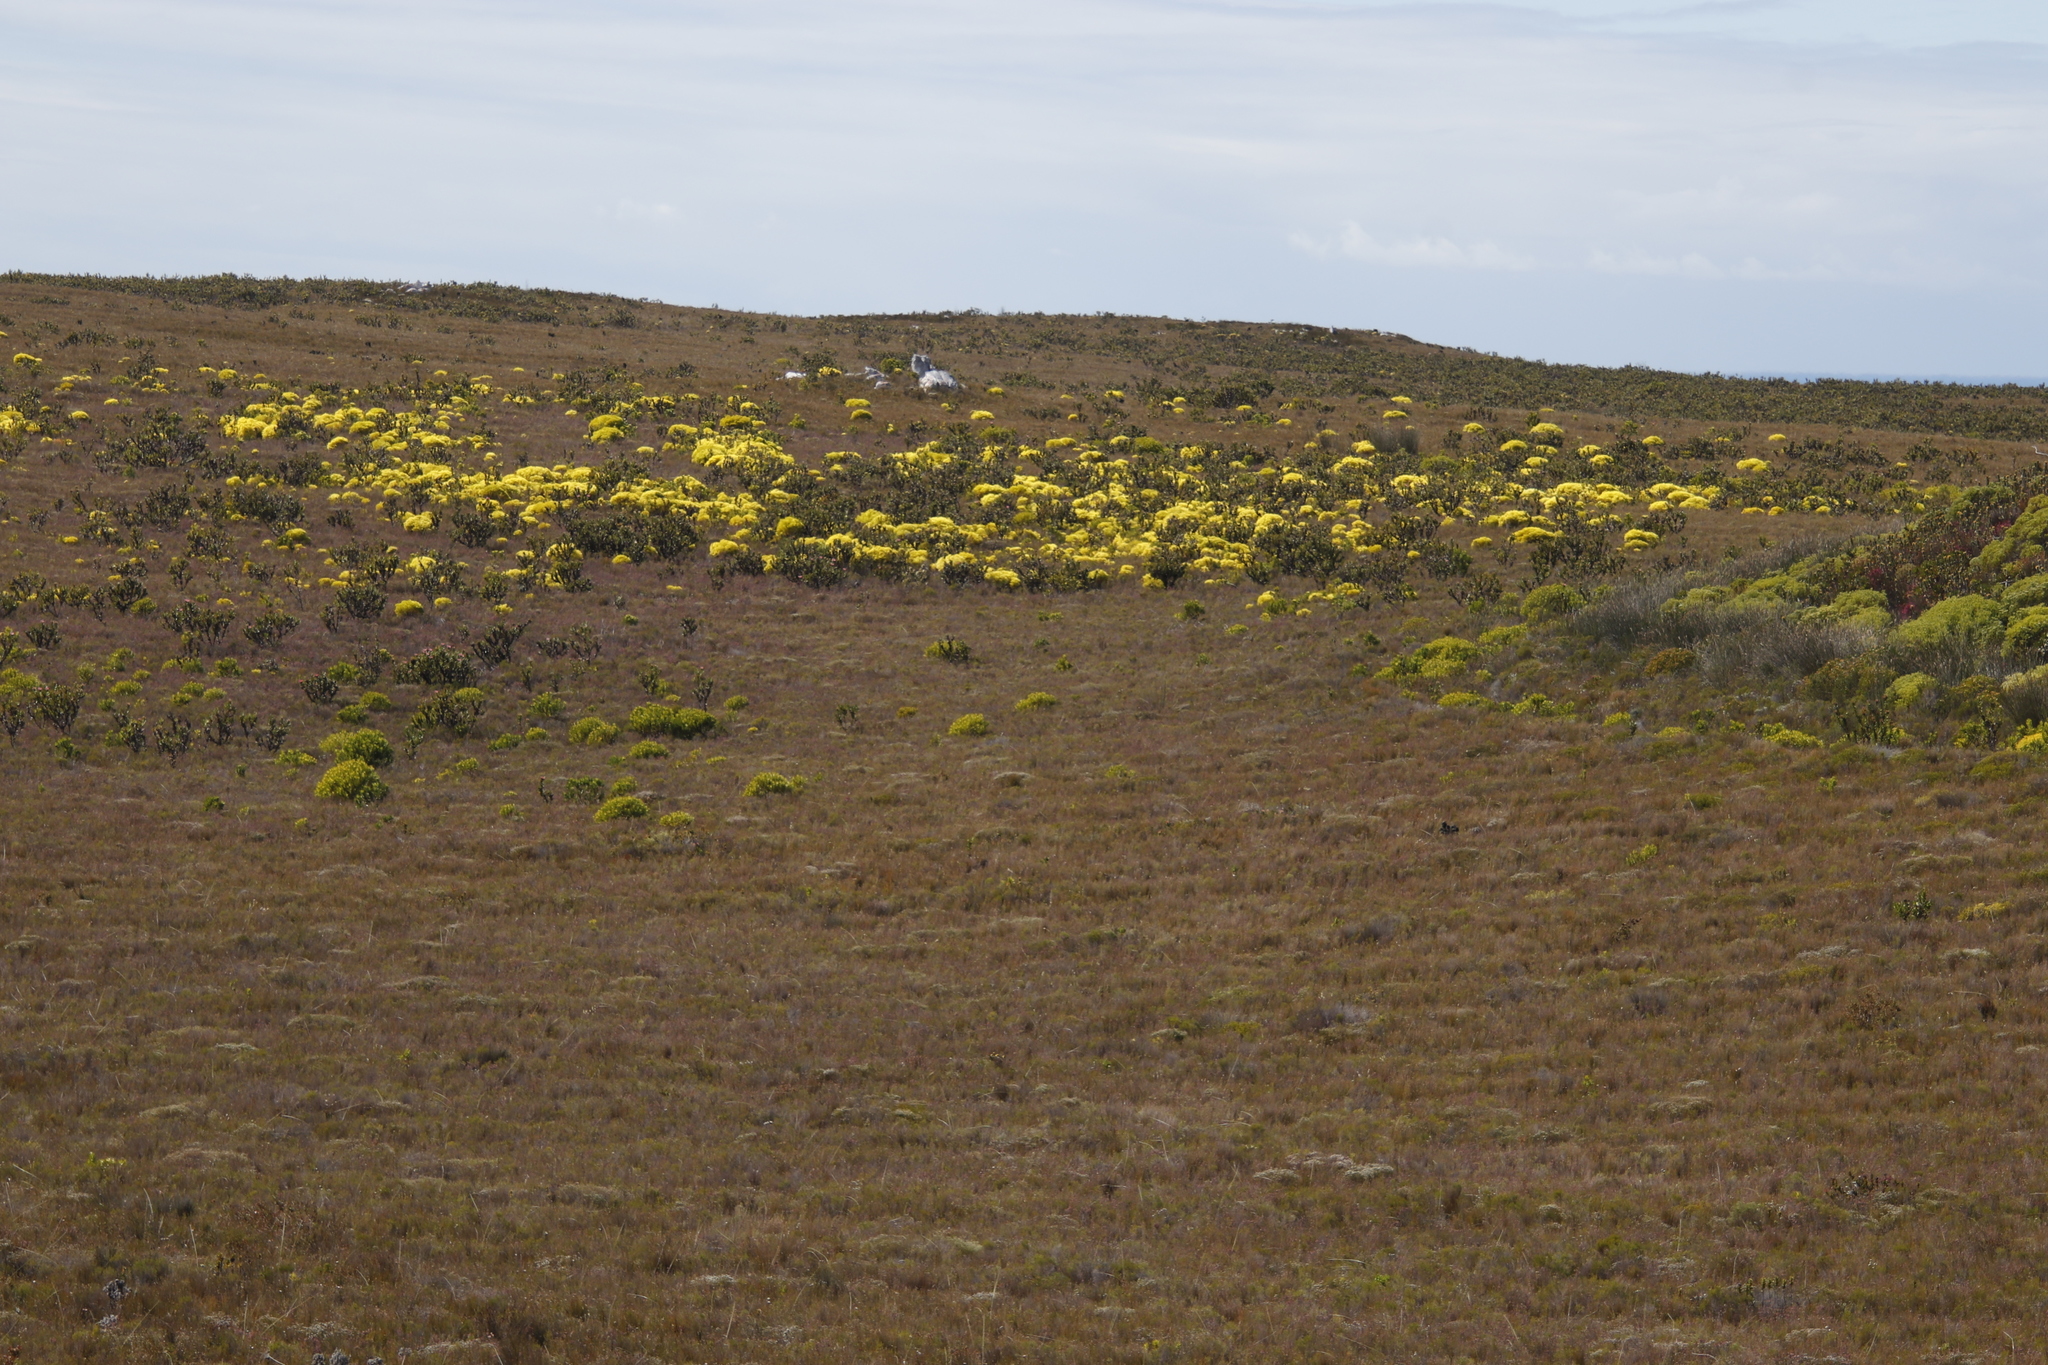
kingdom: Plantae
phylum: Tracheophyta
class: Magnoliopsida
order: Proteales
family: Proteaceae
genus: Leucadendron
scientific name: Leucadendron platyspermum
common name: Plate-seed conebush
